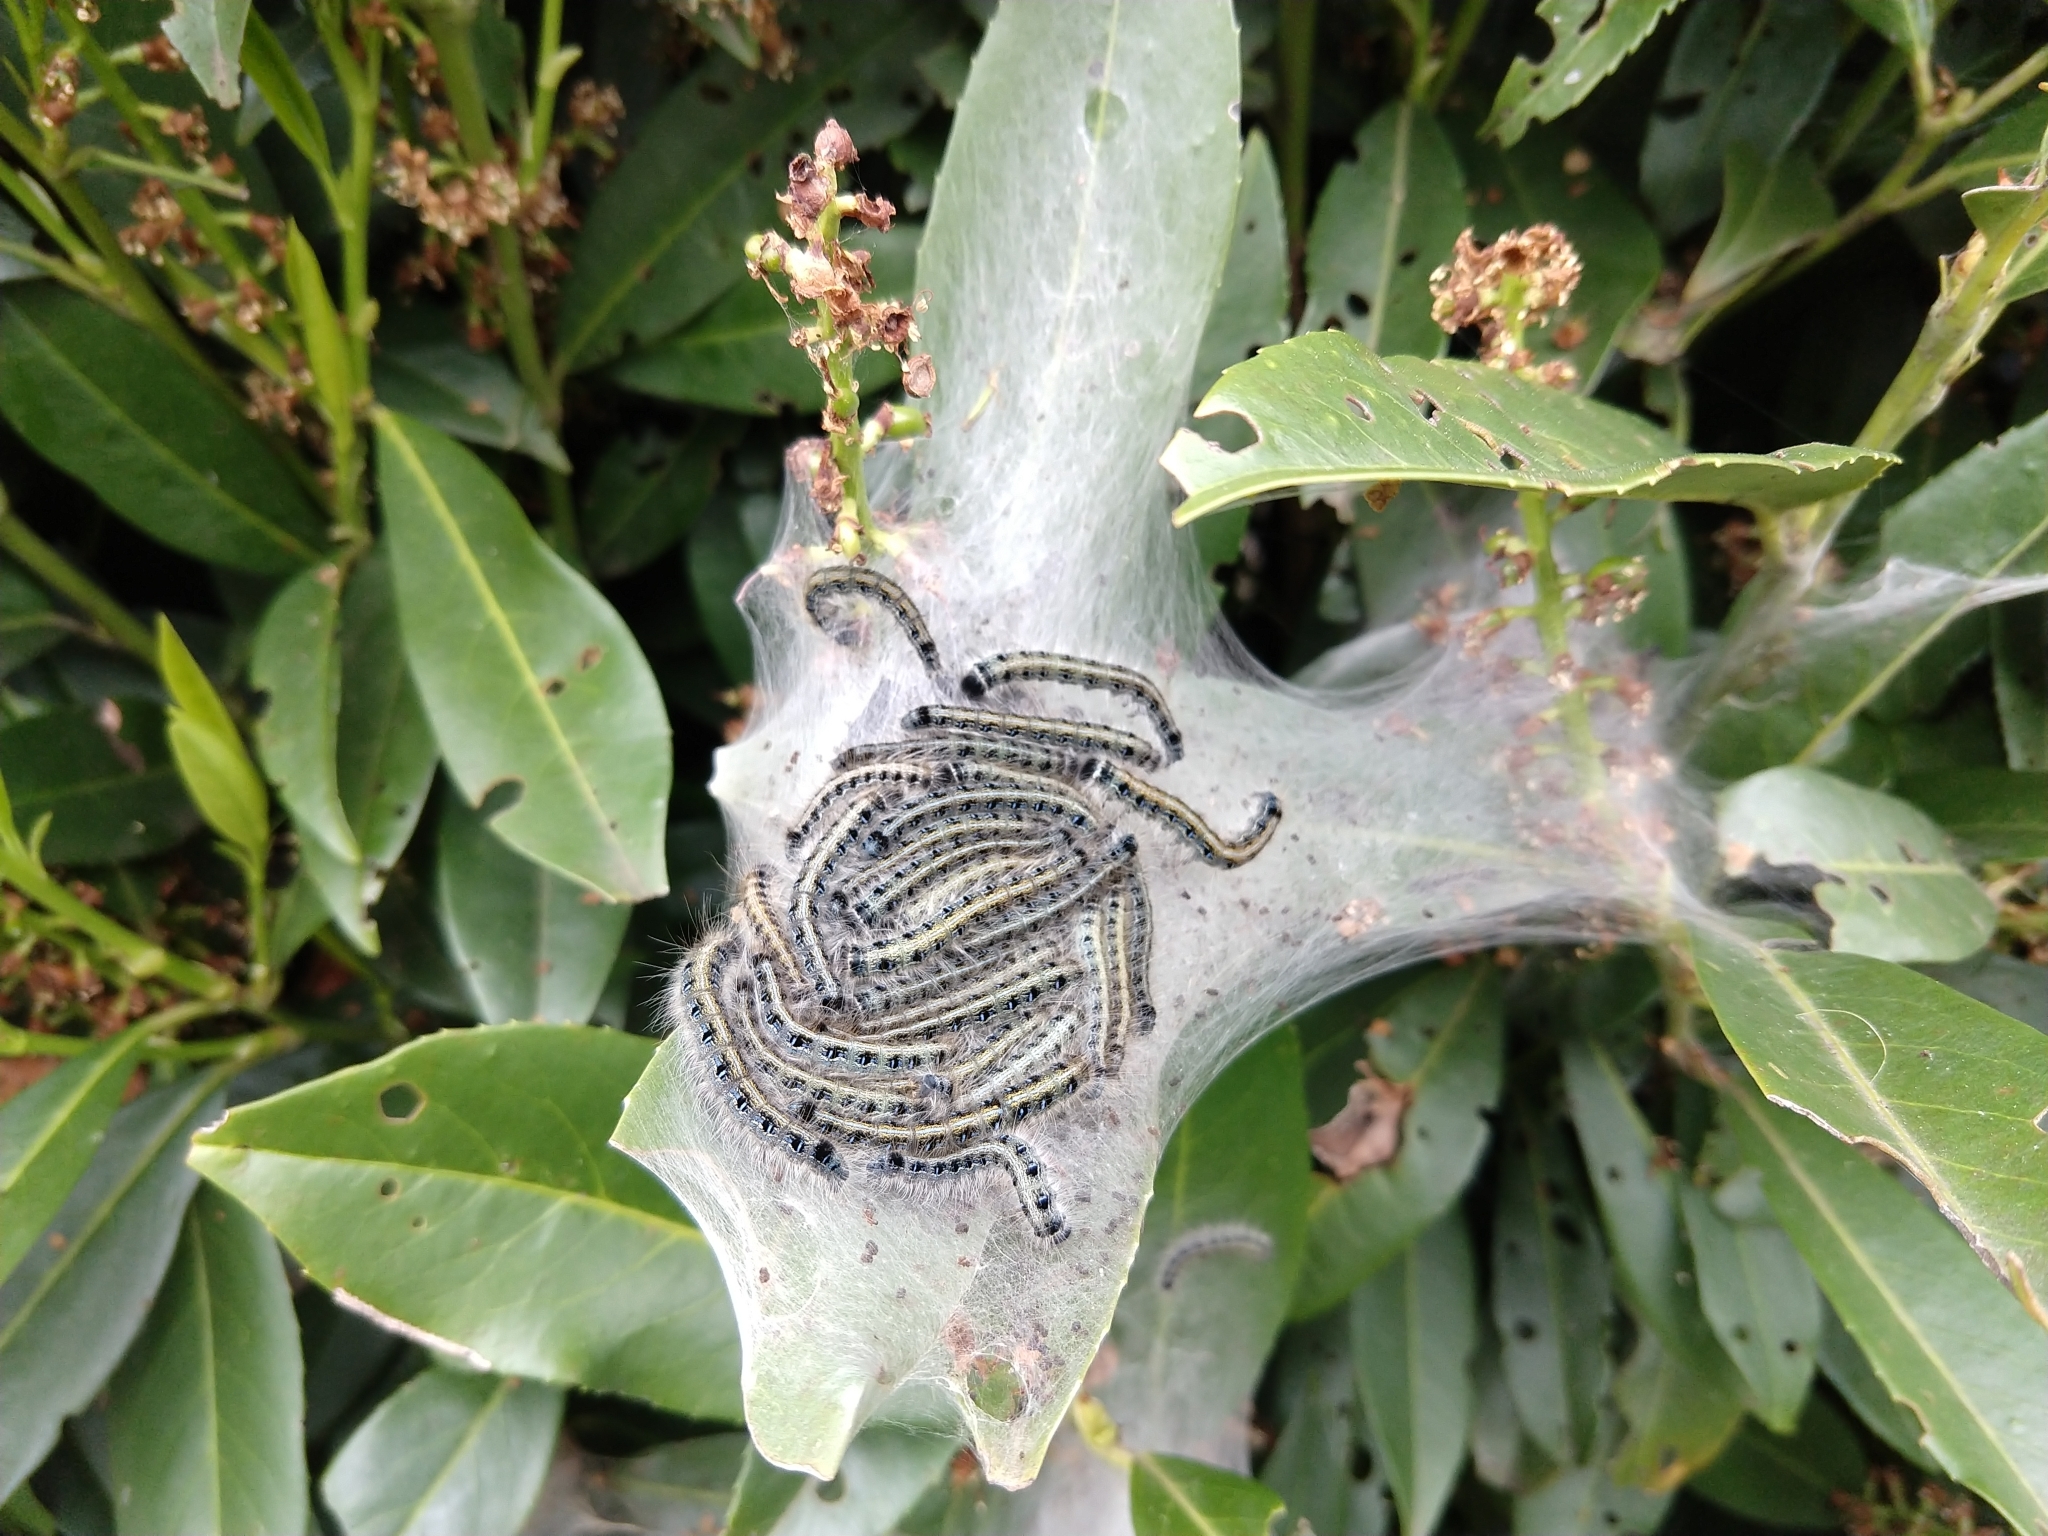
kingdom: Animalia
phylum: Arthropoda
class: Insecta
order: Lepidoptera
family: Lasiocampidae
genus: Malacosoma
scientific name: Malacosoma americana
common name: Eastern tent caterpillar moth
